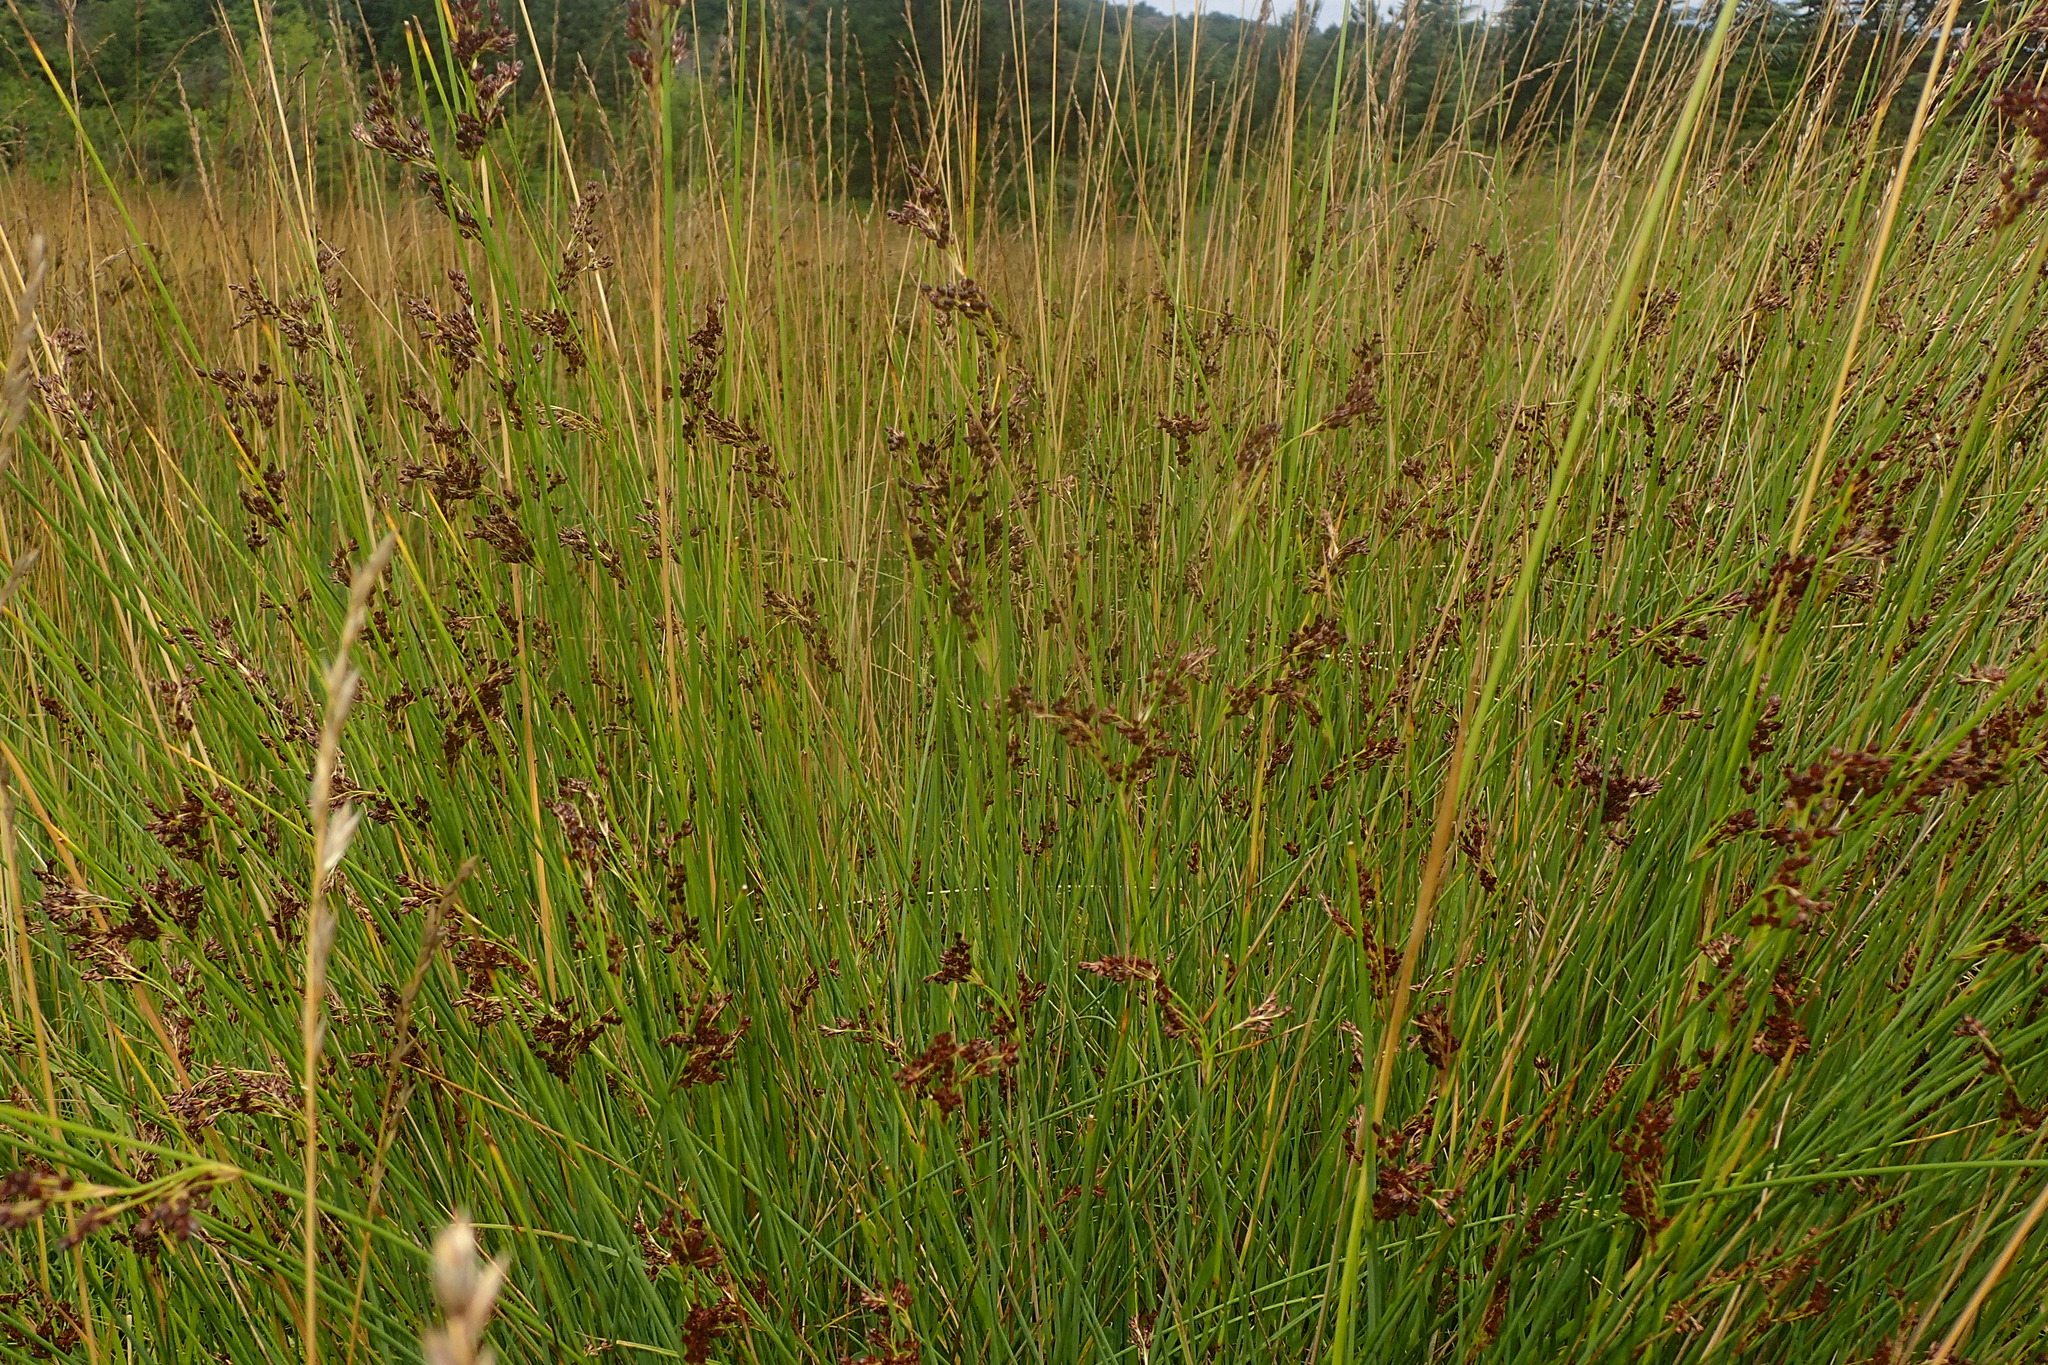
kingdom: Plantae
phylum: Tracheophyta
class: Liliopsida
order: Poales
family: Juncaceae
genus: Juncus
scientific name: Juncus inflexus
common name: Hard rush
